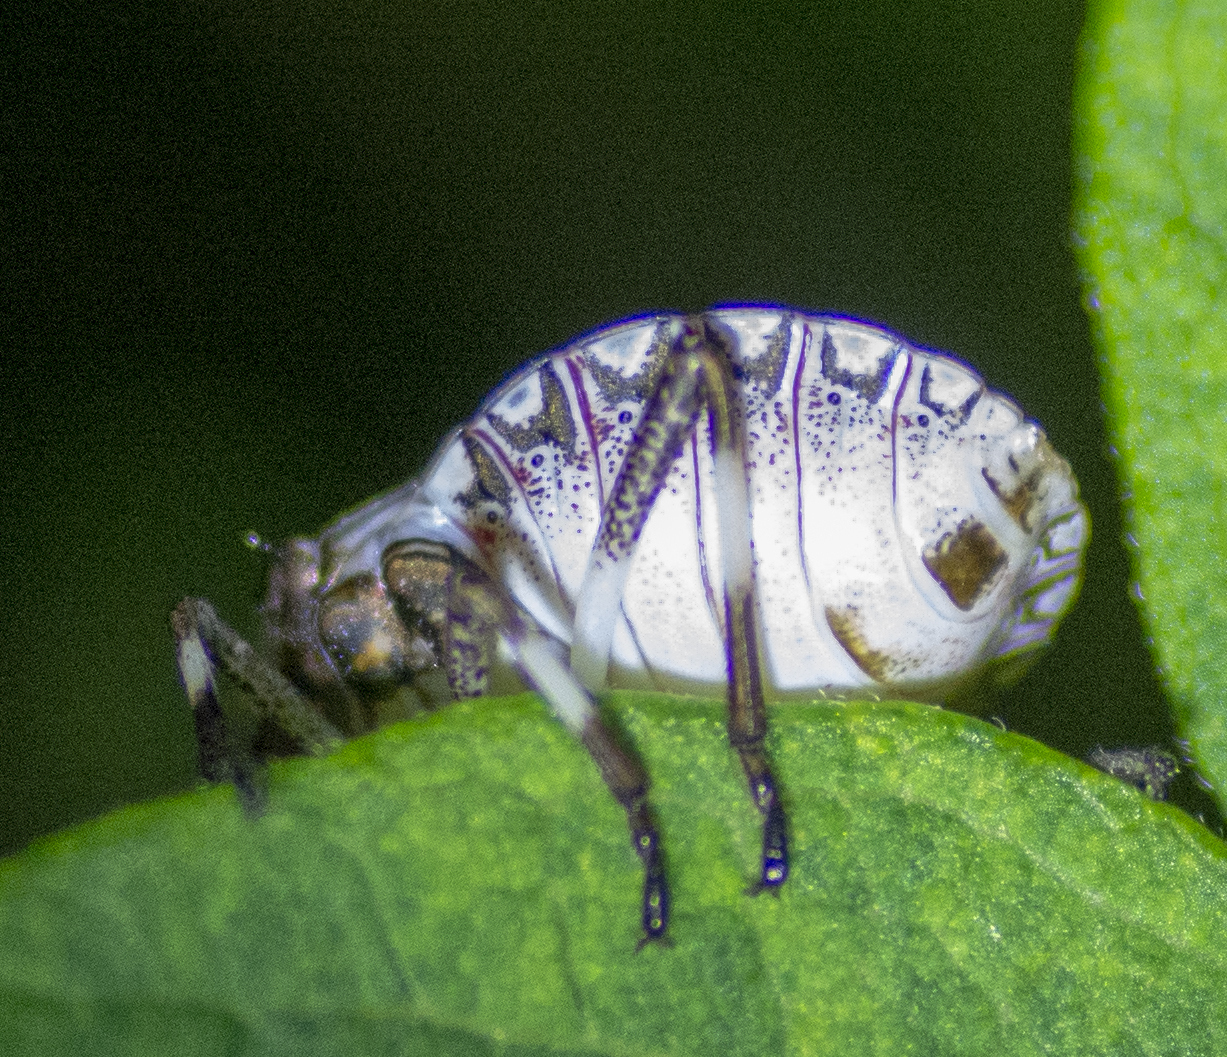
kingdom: Animalia
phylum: Arthropoda
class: Insecta
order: Hemiptera
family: Pentatomidae
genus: Halyomorpha
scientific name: Halyomorpha halys
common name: Brown marmorated stink bug
